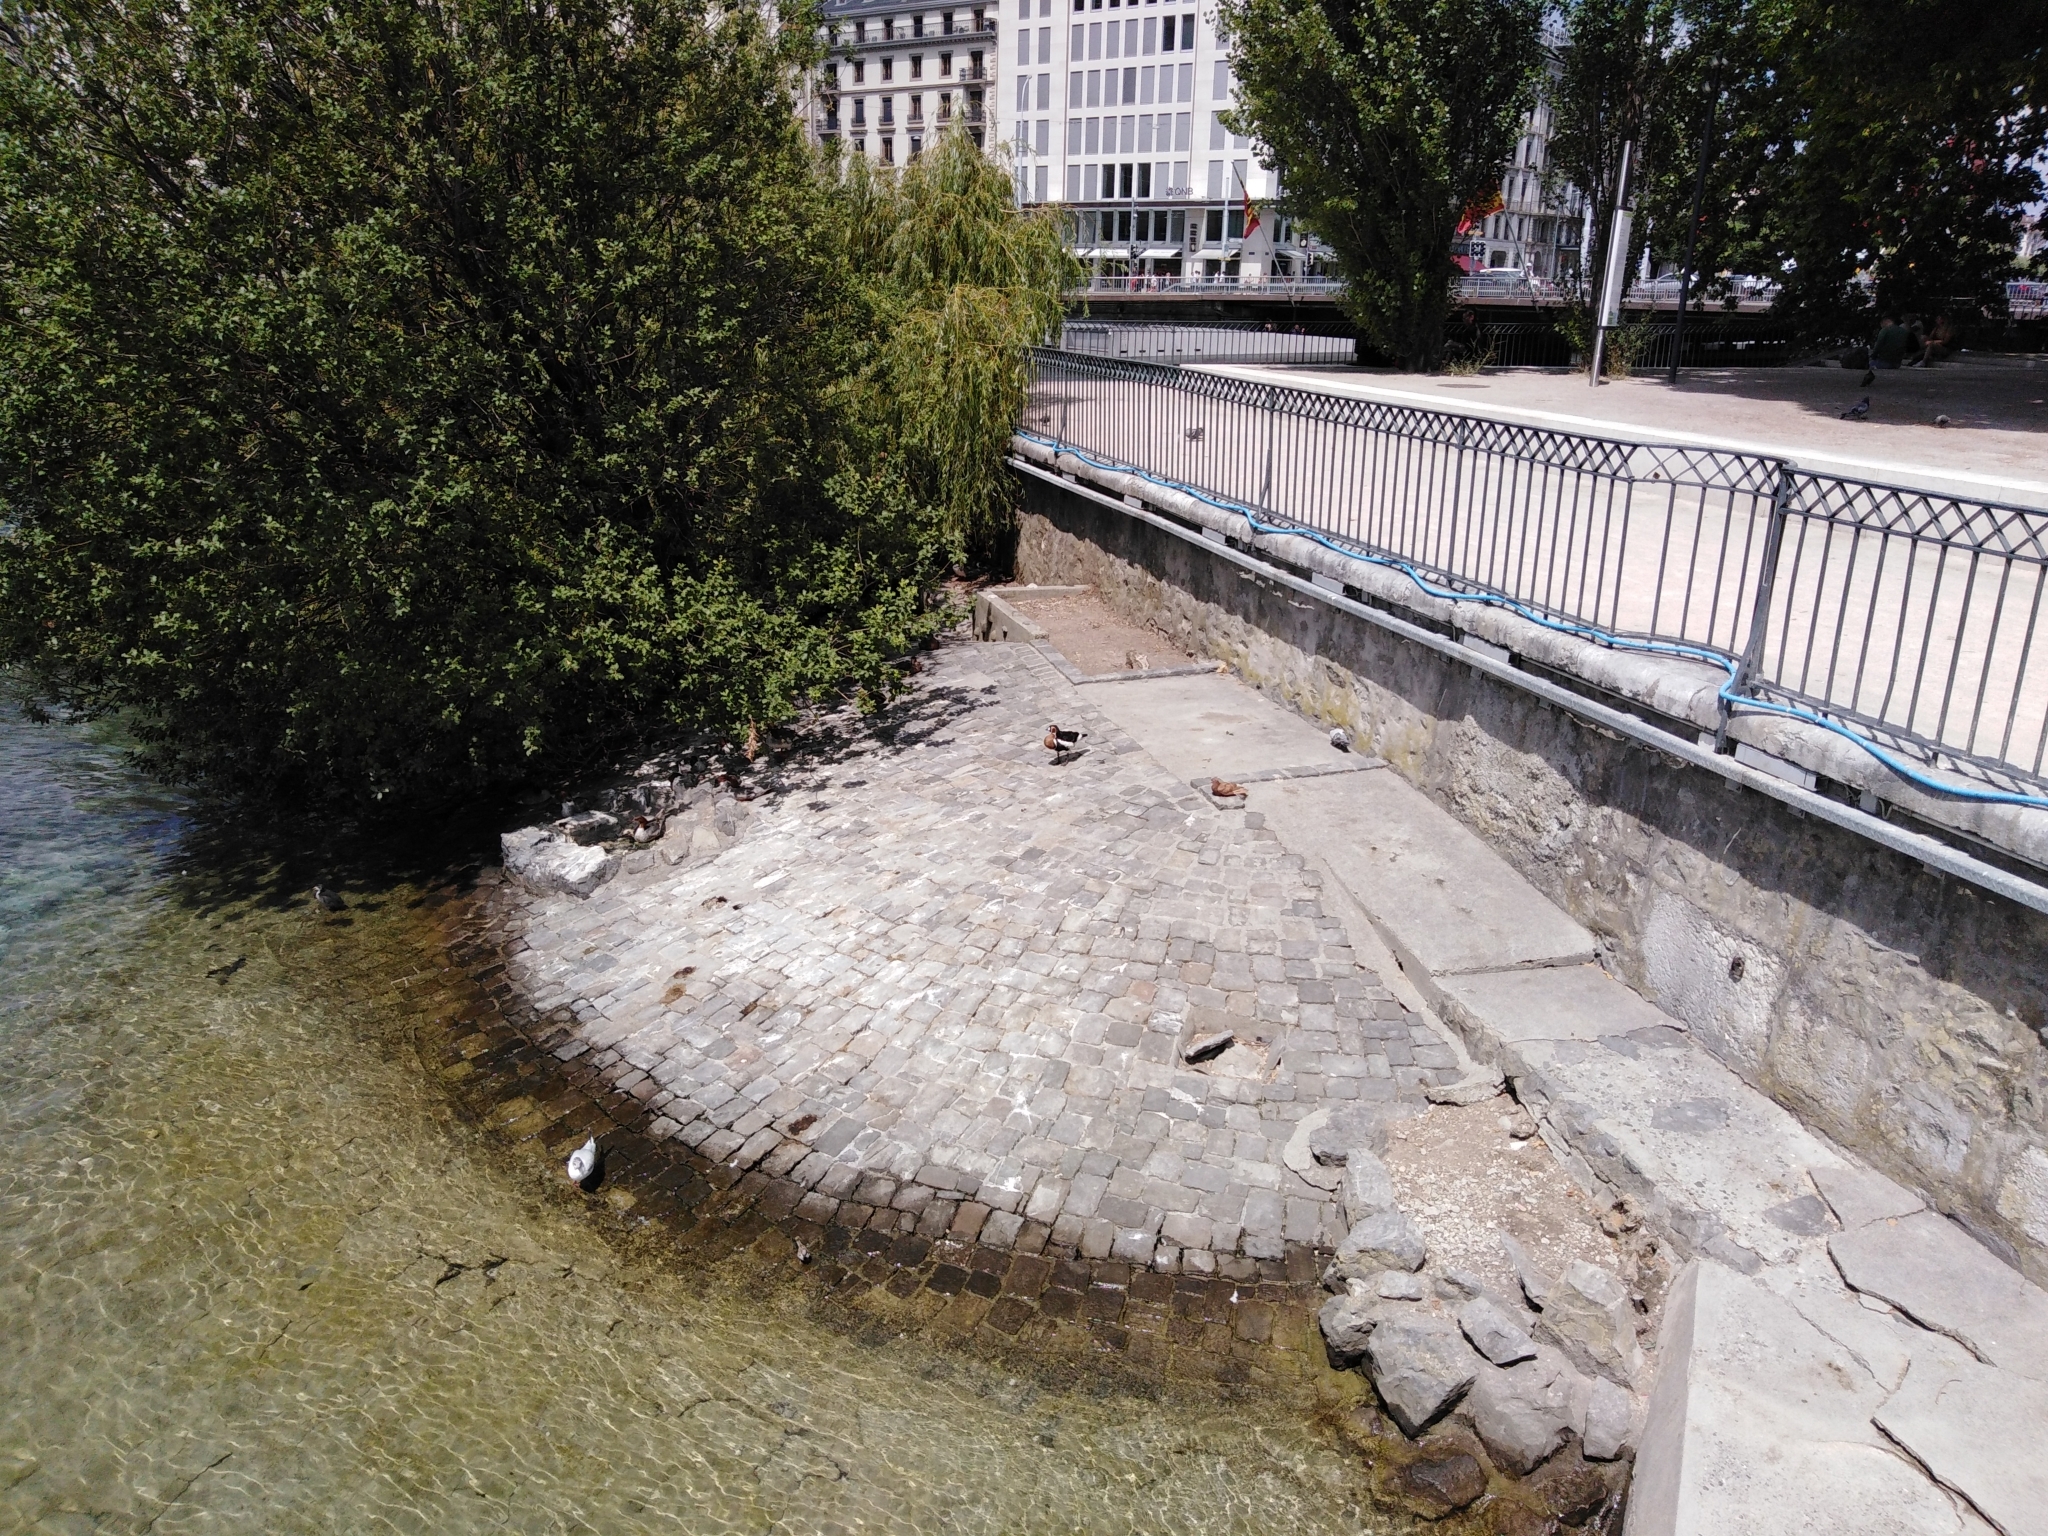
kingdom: Animalia
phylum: Chordata
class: Aves
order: Anseriformes
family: Anatidae
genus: Branta
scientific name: Branta ruficollis
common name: Red-breasted goose
